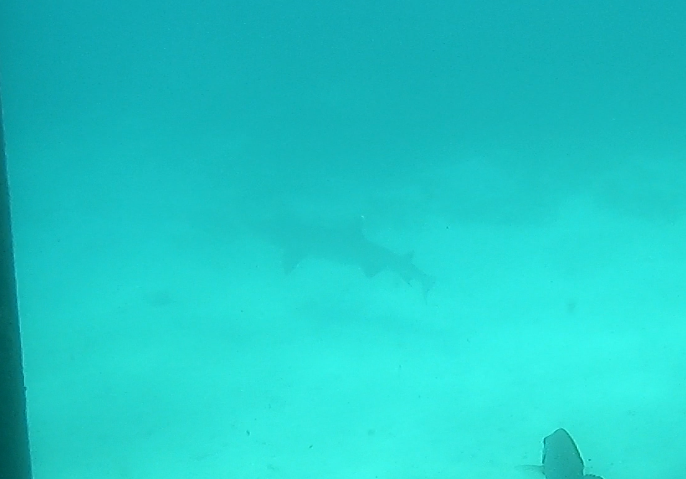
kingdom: Animalia
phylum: Chordata
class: Elasmobranchii
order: Carcharhiniformes
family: Carcharhinidae
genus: Triaenodon
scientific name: Triaenodon obesus
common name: Whitetip reef shark
